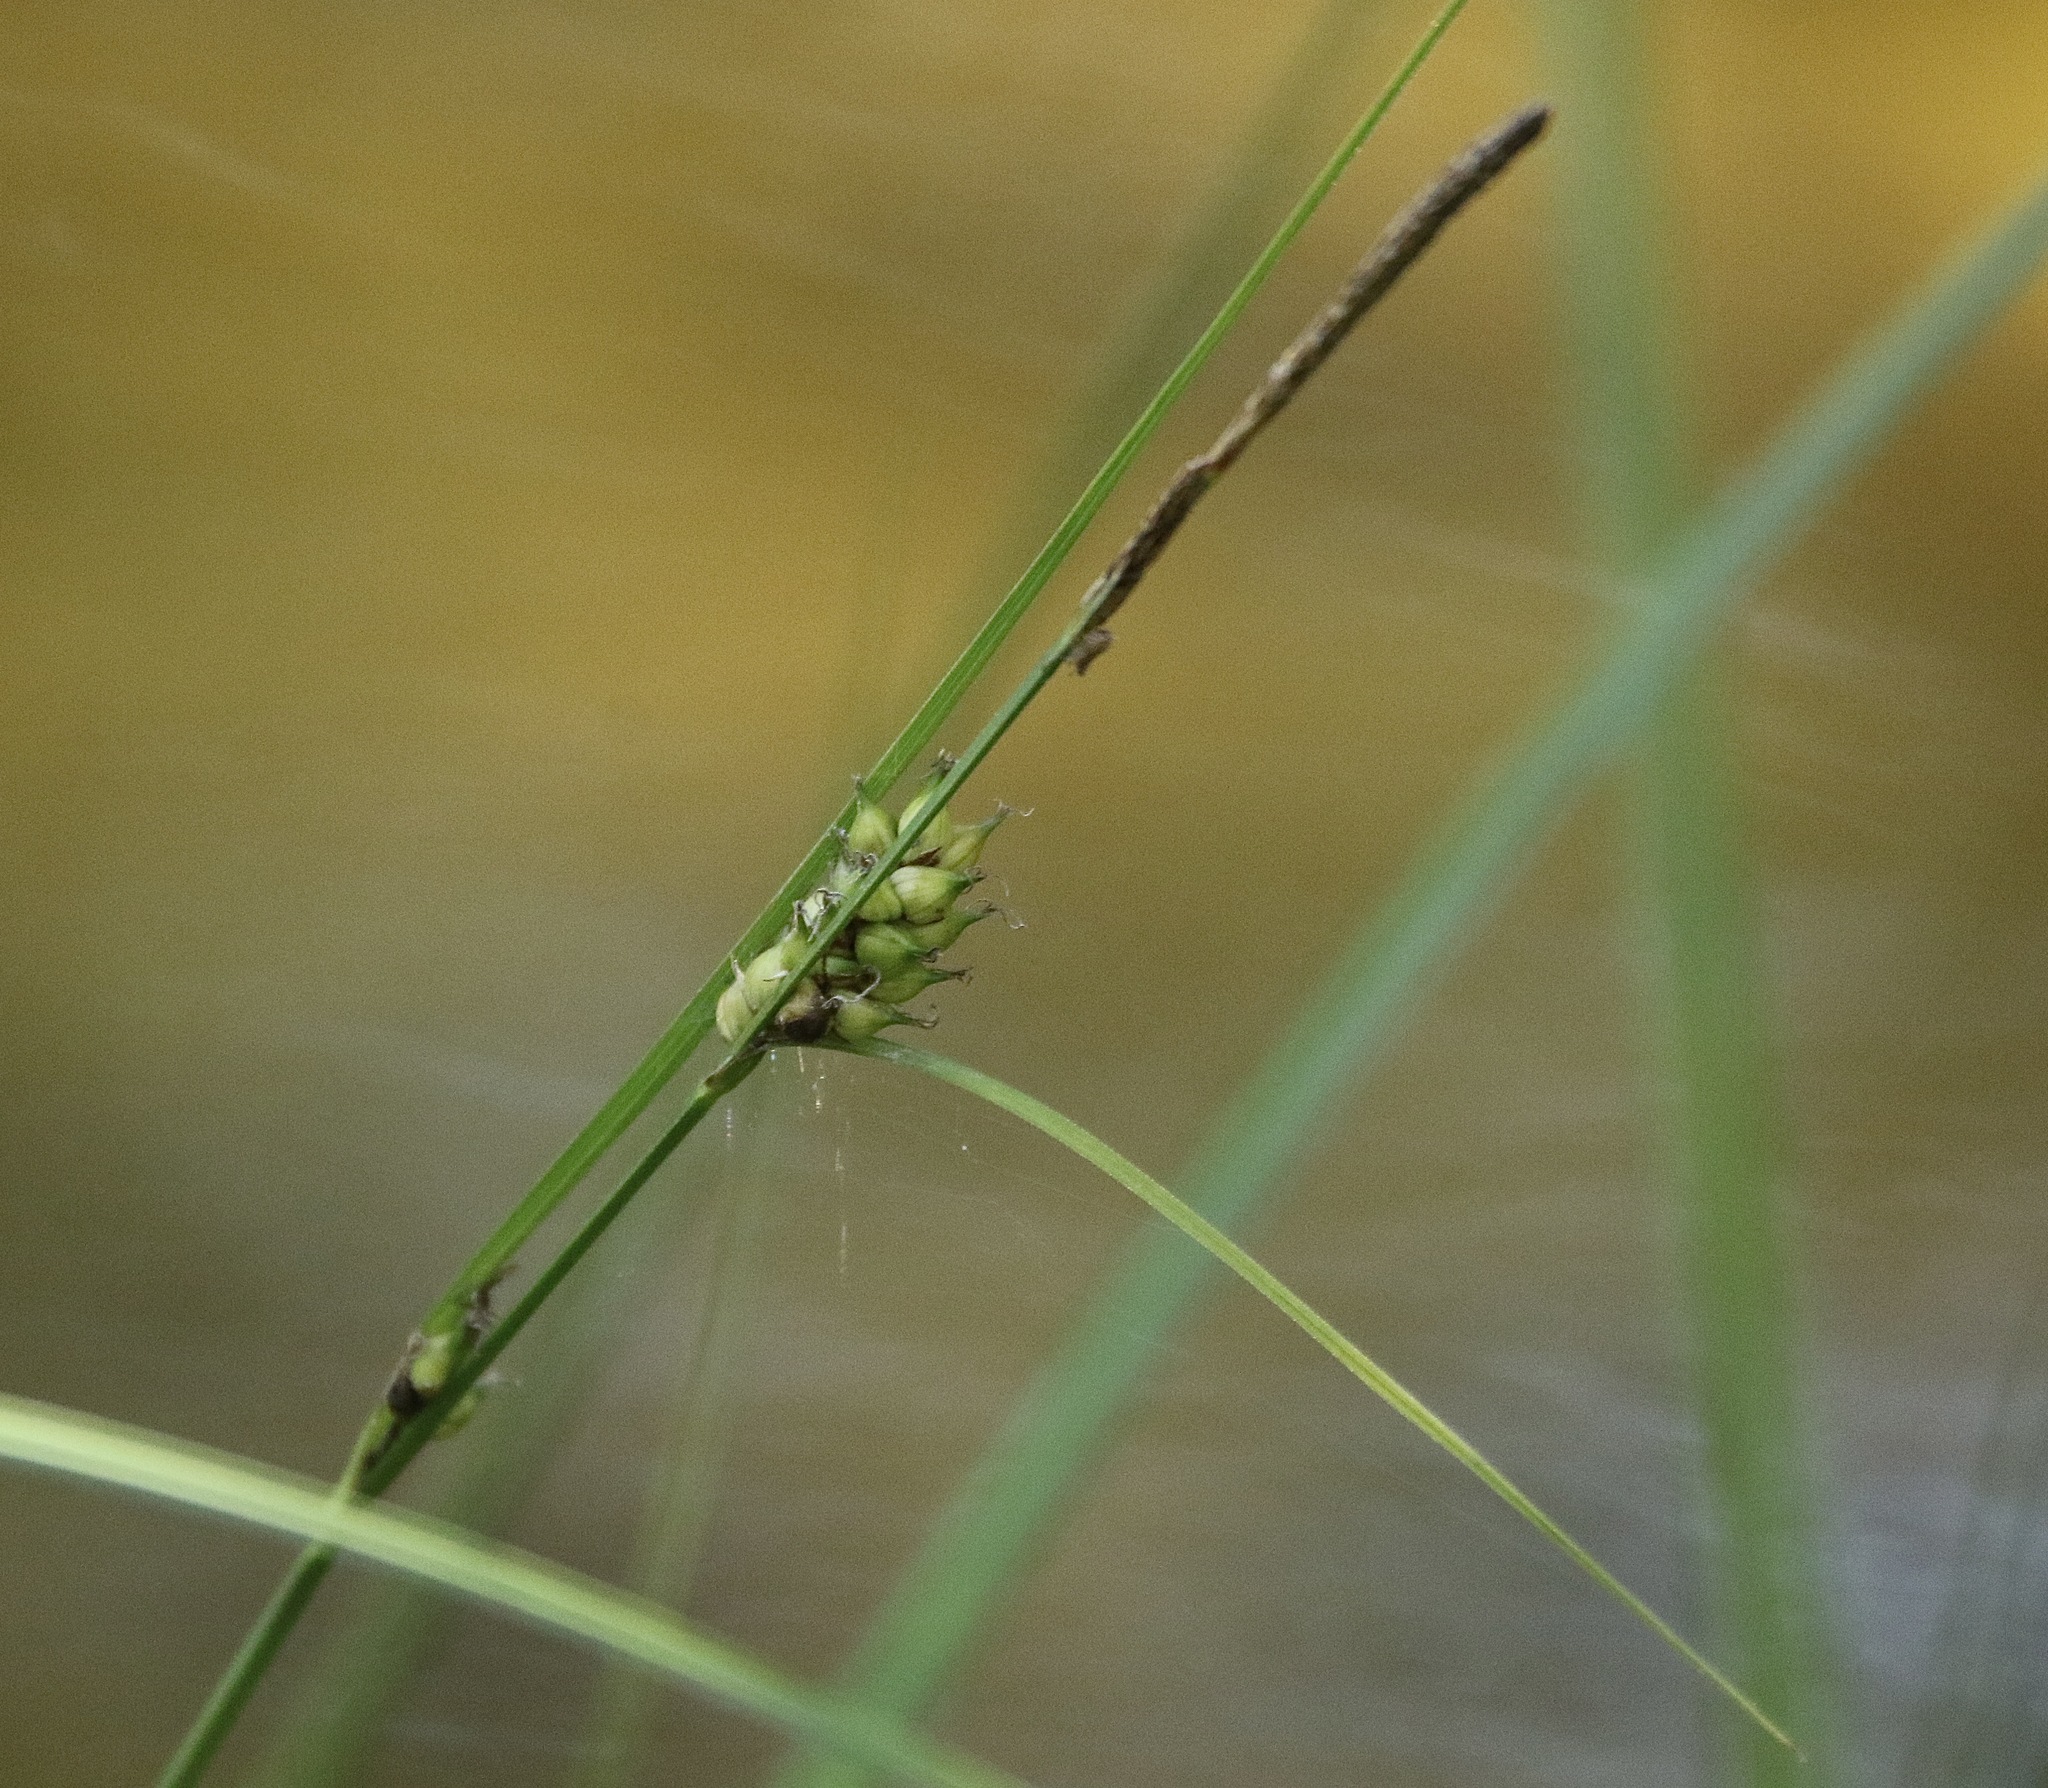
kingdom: Plantae
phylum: Tracheophyta
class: Liliopsida
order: Poales
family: Cyperaceae
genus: Carex
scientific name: Carex striata
